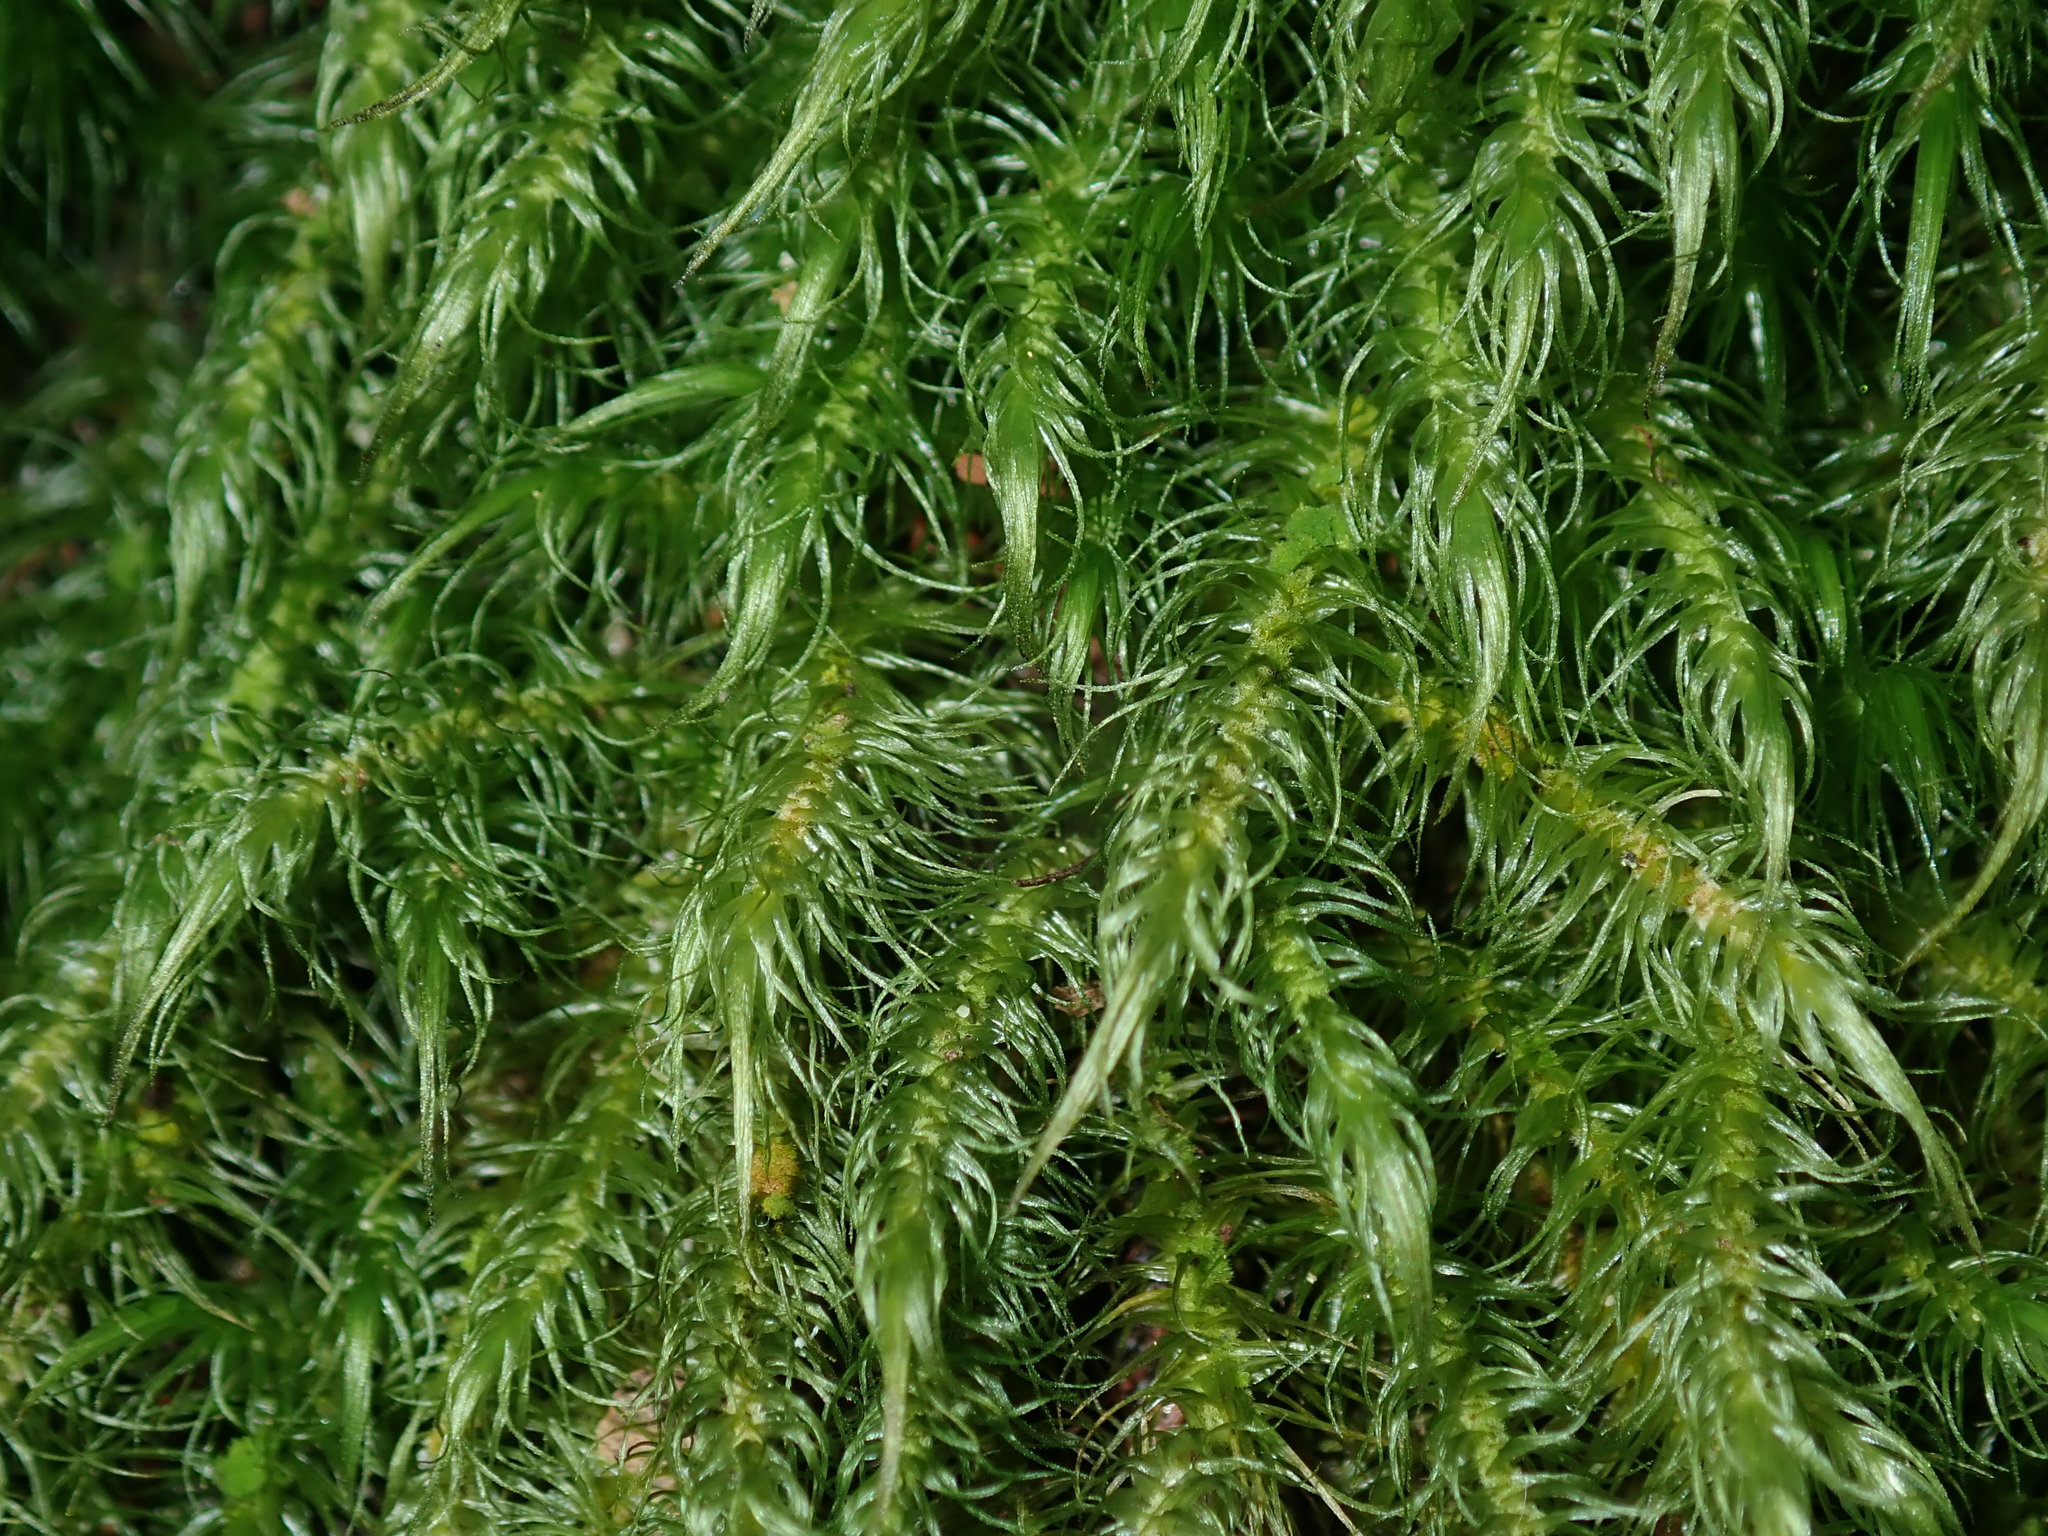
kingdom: Plantae
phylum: Bryophyta
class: Bryopsida
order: Dicranales
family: Dicranaceae
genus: Dicranoloma
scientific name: Dicranoloma dicarpon
